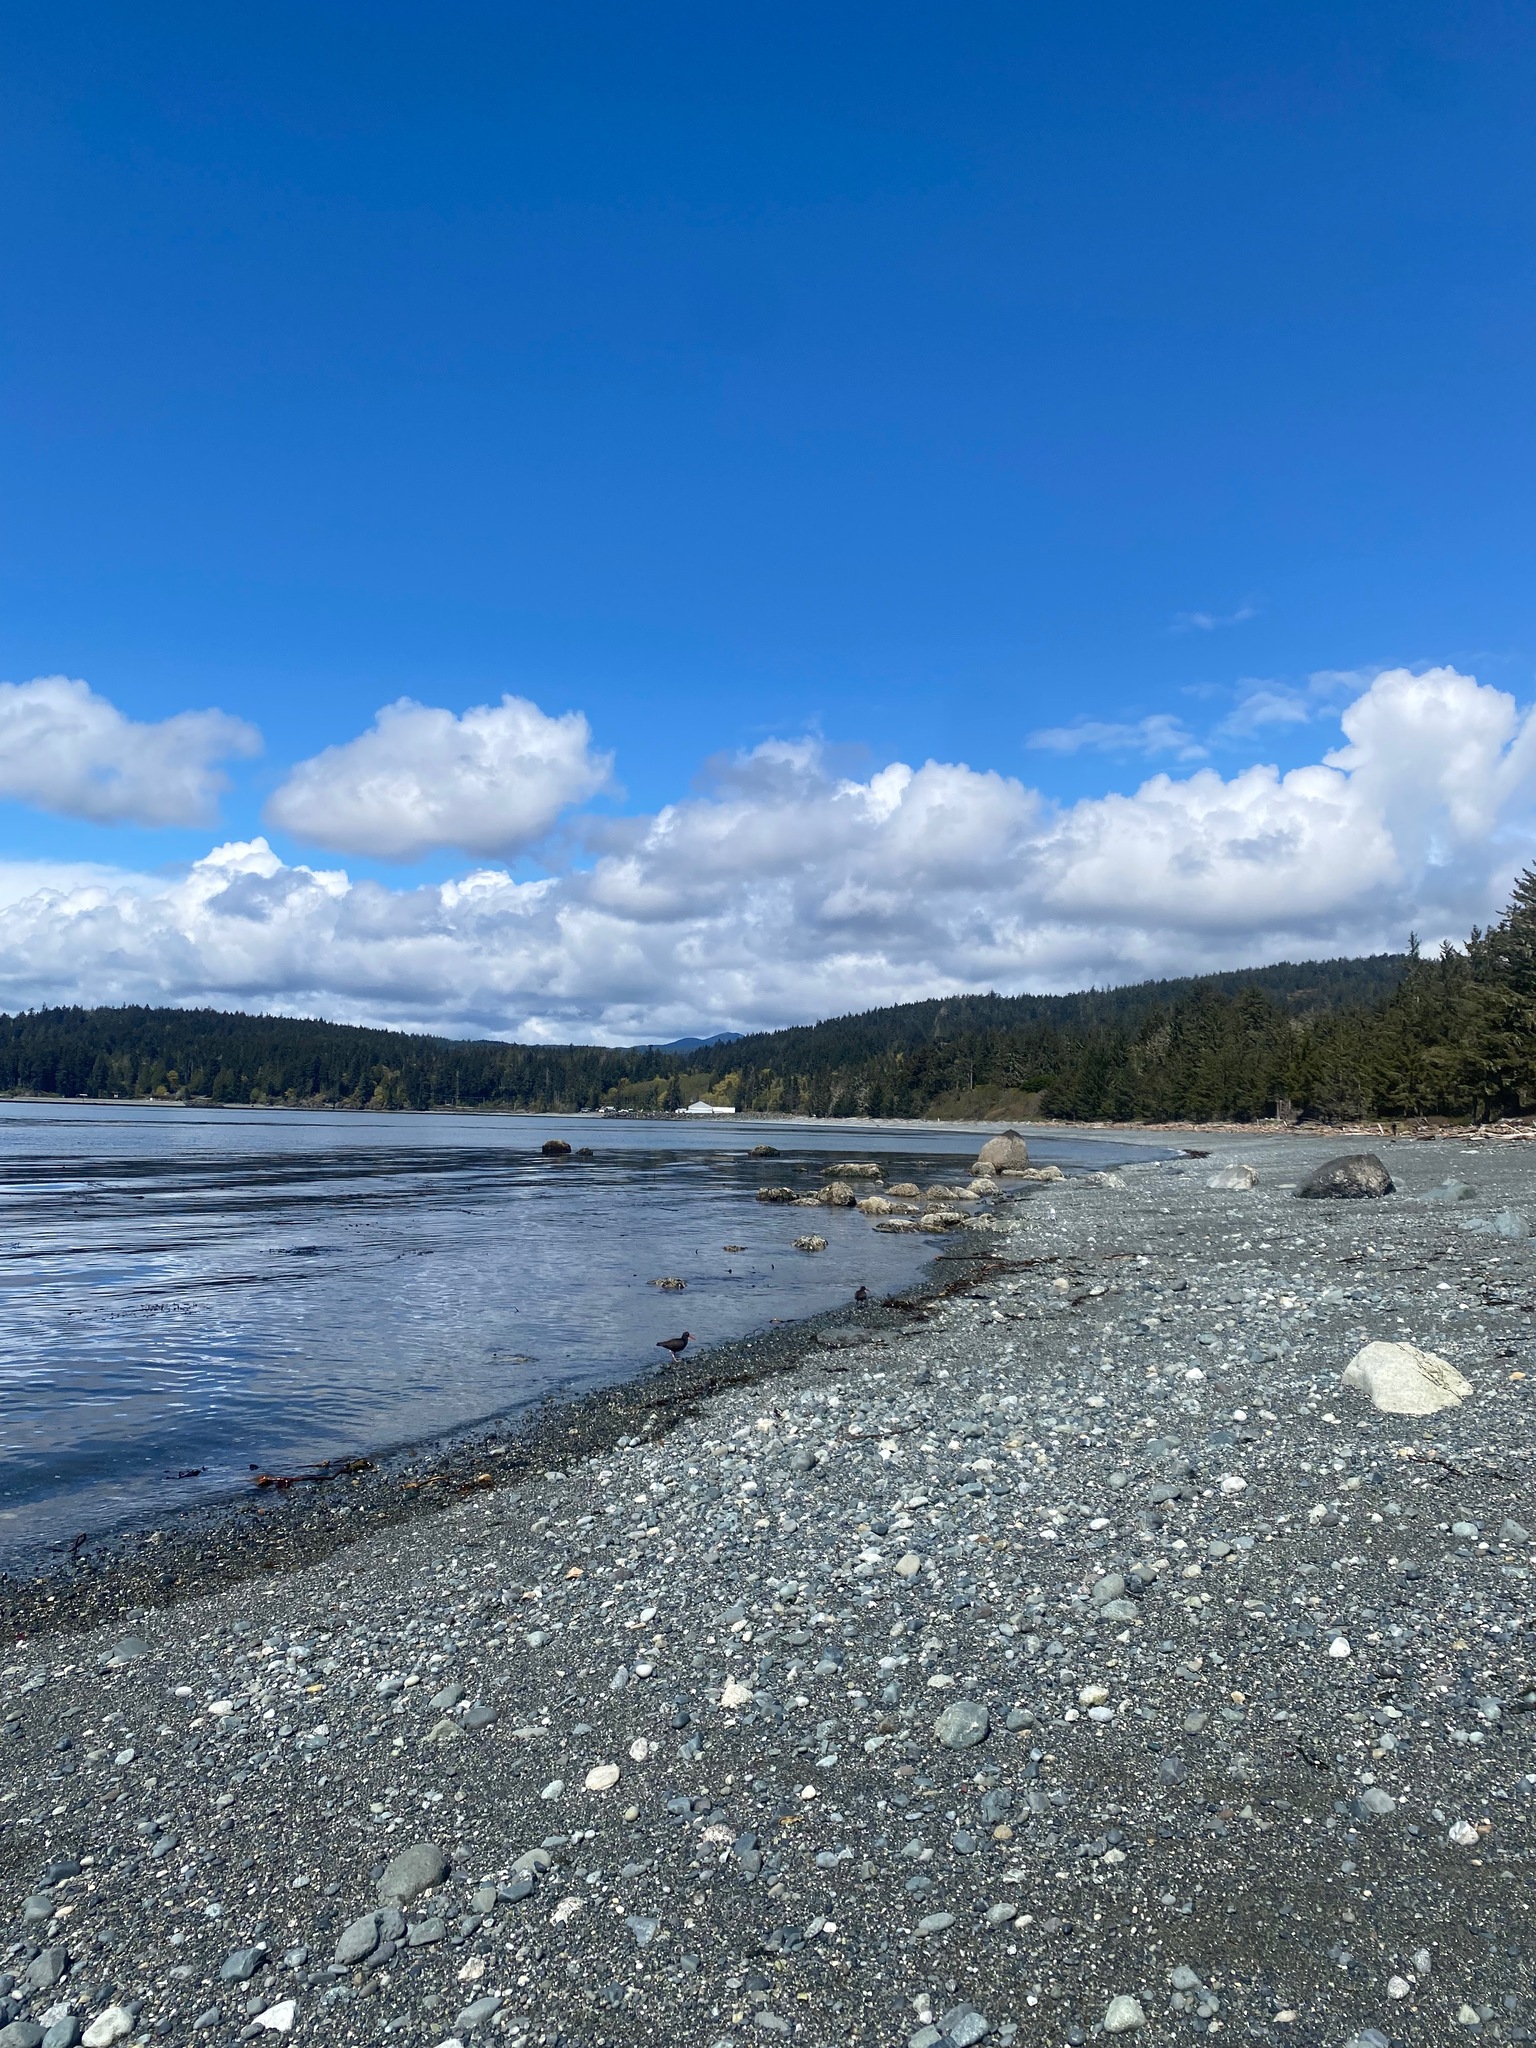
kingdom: Animalia
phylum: Chordata
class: Aves
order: Charadriiformes
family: Haematopodidae
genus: Haematopus
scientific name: Haematopus bachmani
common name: Black oystercatcher
